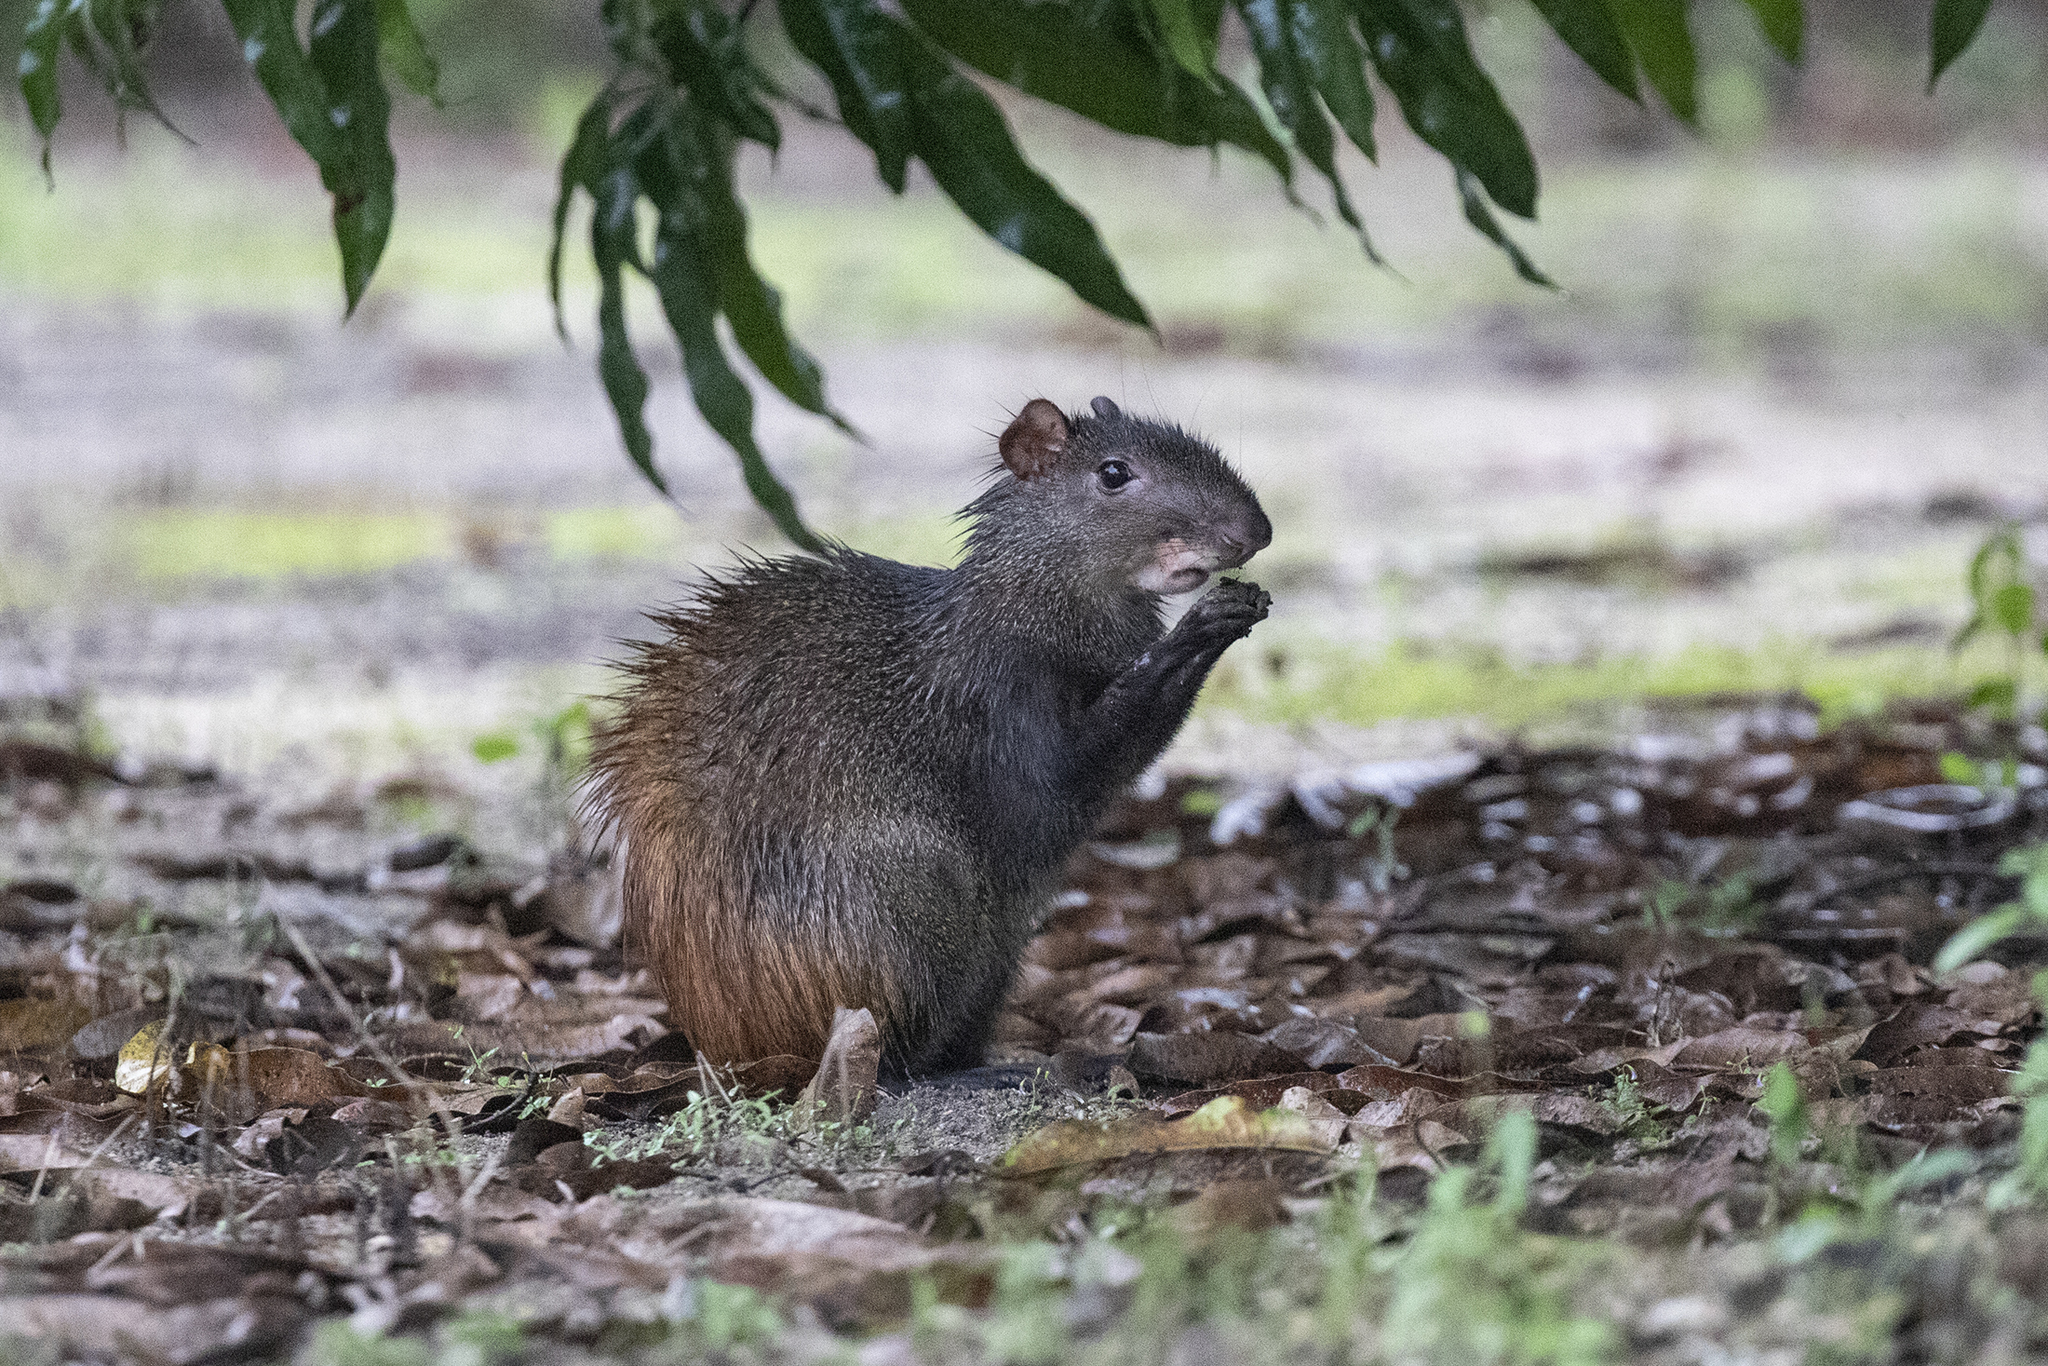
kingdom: Animalia
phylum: Chordata
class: Mammalia
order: Rodentia
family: Dasyproctidae
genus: Dasyprocta
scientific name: Dasyprocta leporina
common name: Red-rumped agouti
